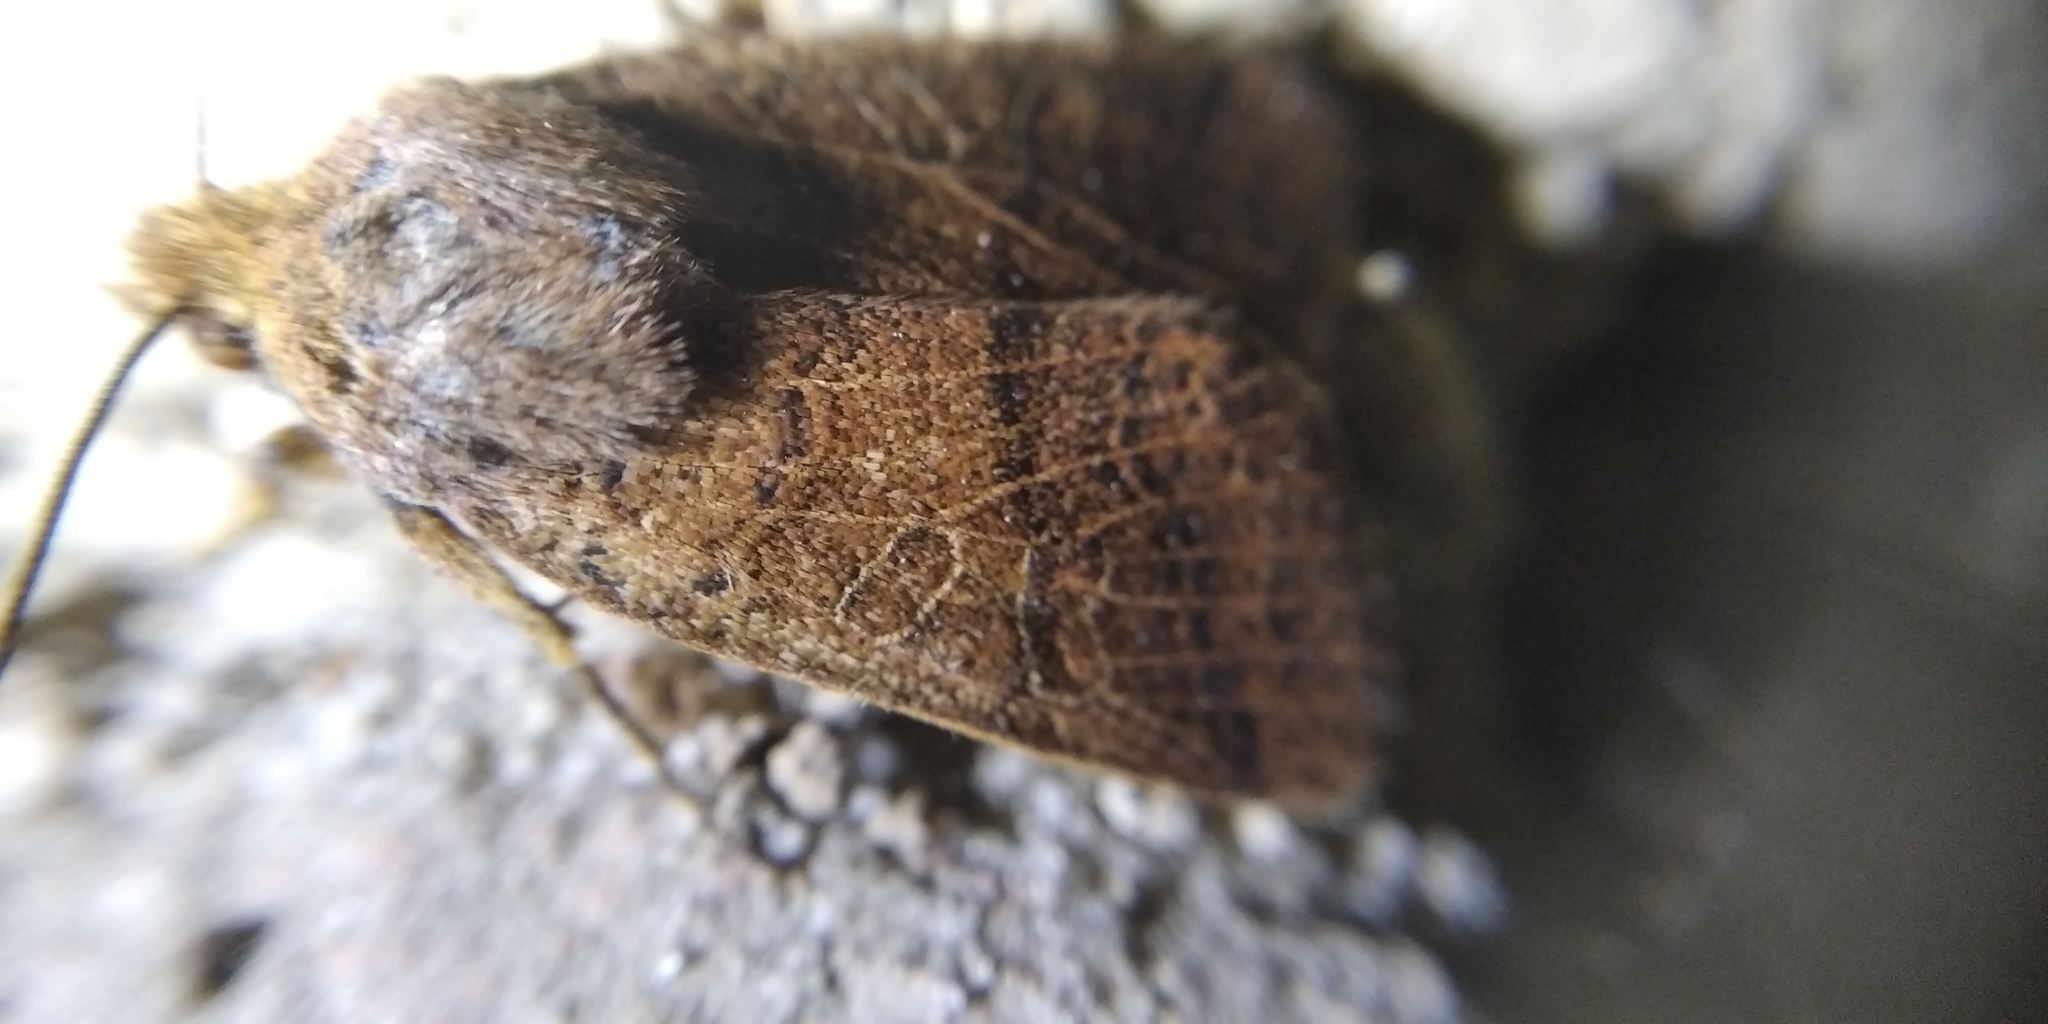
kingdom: Animalia
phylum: Arthropoda
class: Insecta
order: Lepidoptera
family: Noctuidae
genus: Agrochola
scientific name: Agrochola nitida
